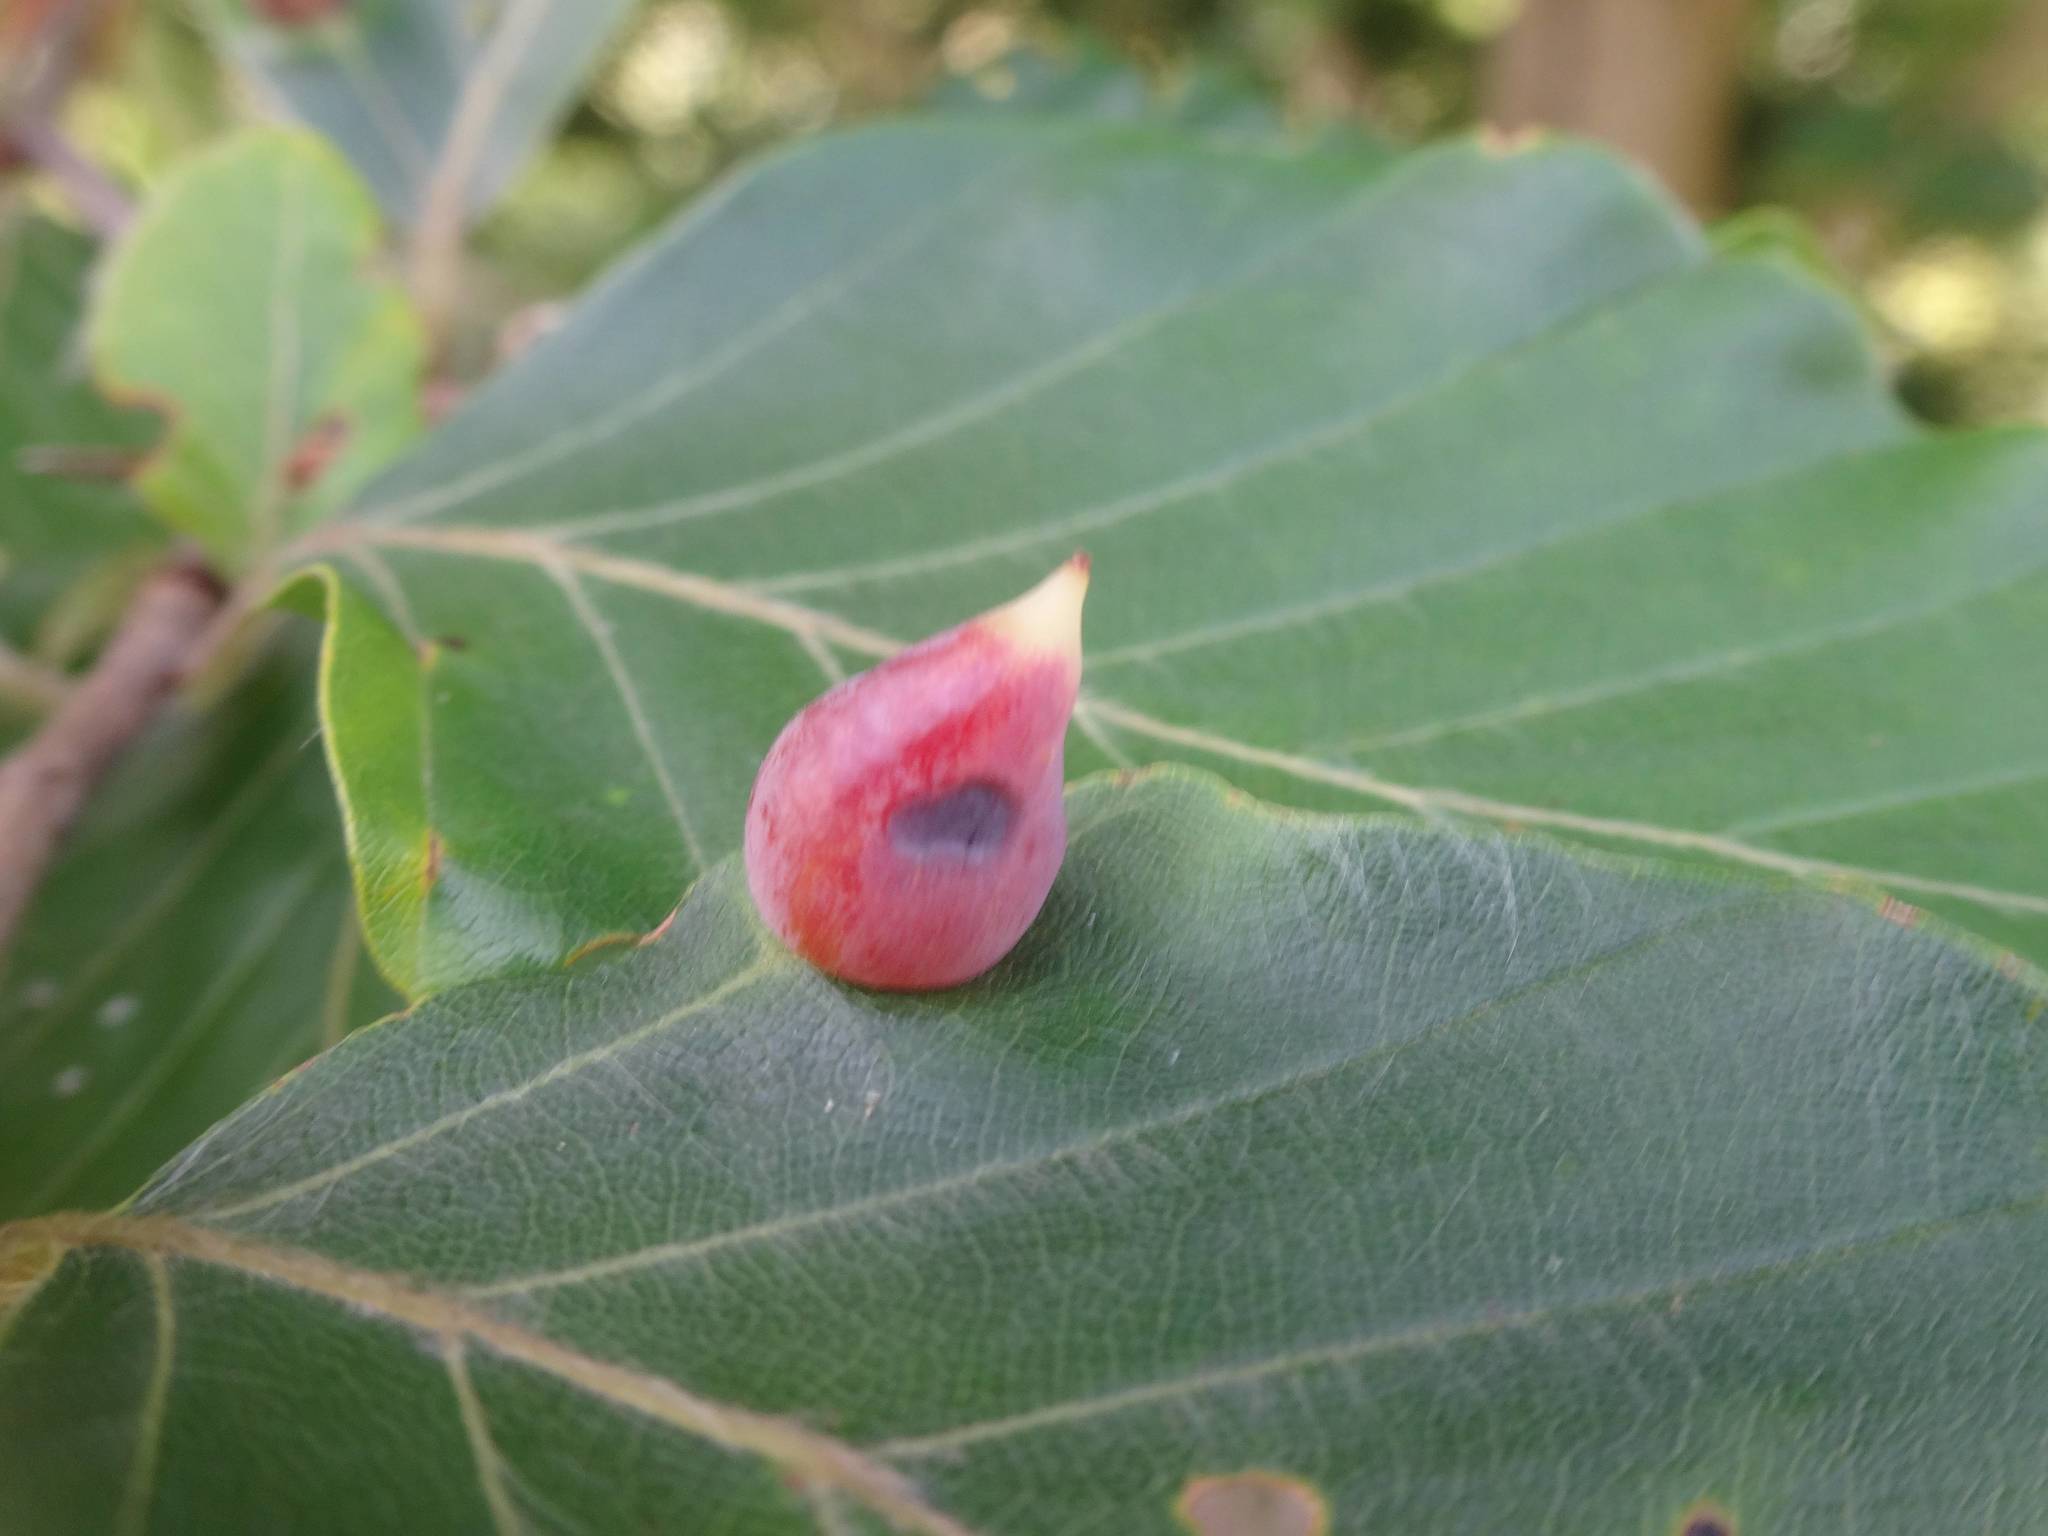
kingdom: Animalia
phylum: Arthropoda
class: Insecta
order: Diptera
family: Cecidomyiidae
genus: Mikiola
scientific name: Mikiola fagi
